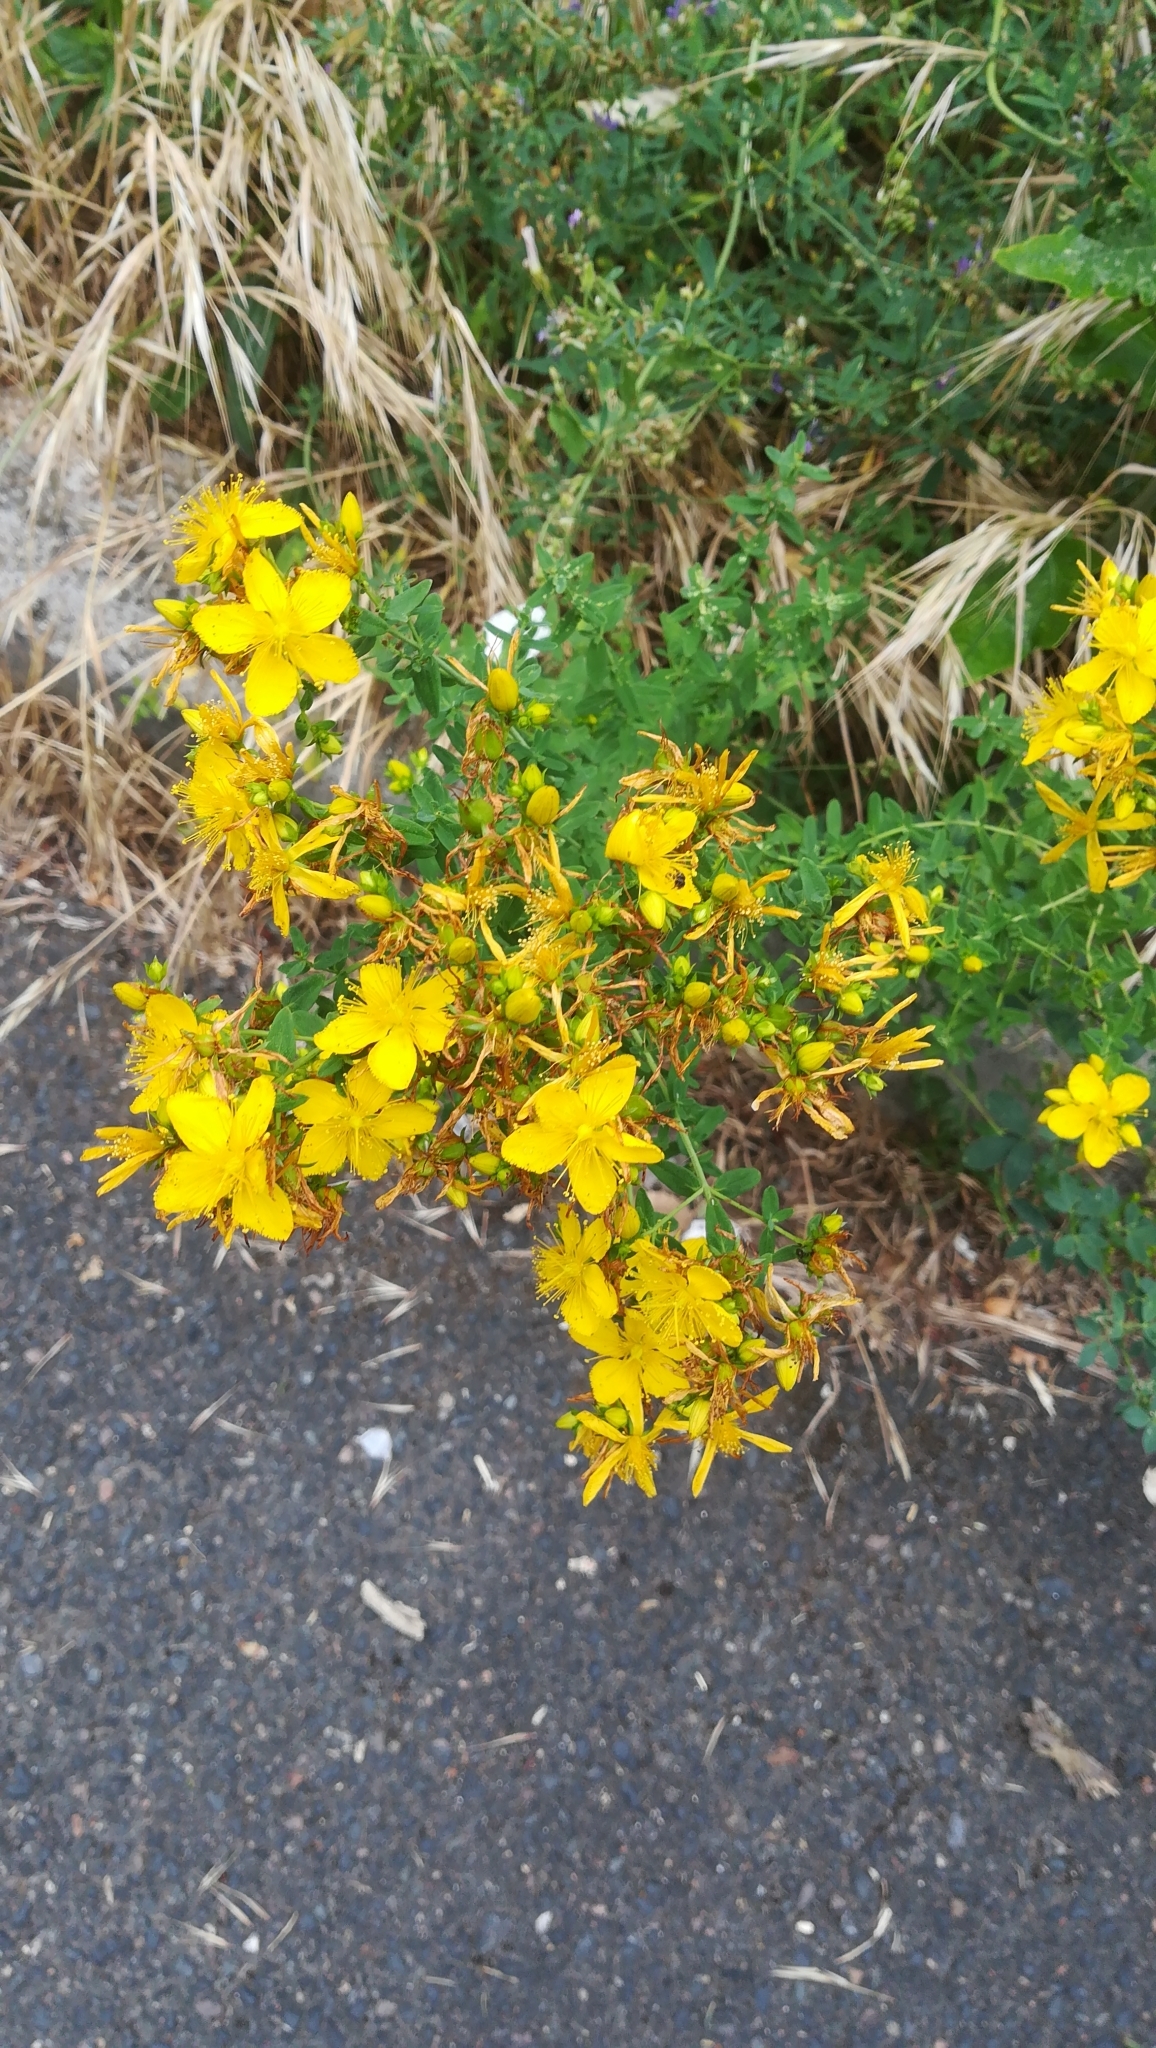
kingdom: Plantae
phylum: Tracheophyta
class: Magnoliopsida
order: Malpighiales
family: Hypericaceae
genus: Hypericum
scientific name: Hypericum perforatum
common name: Common st. johnswort
